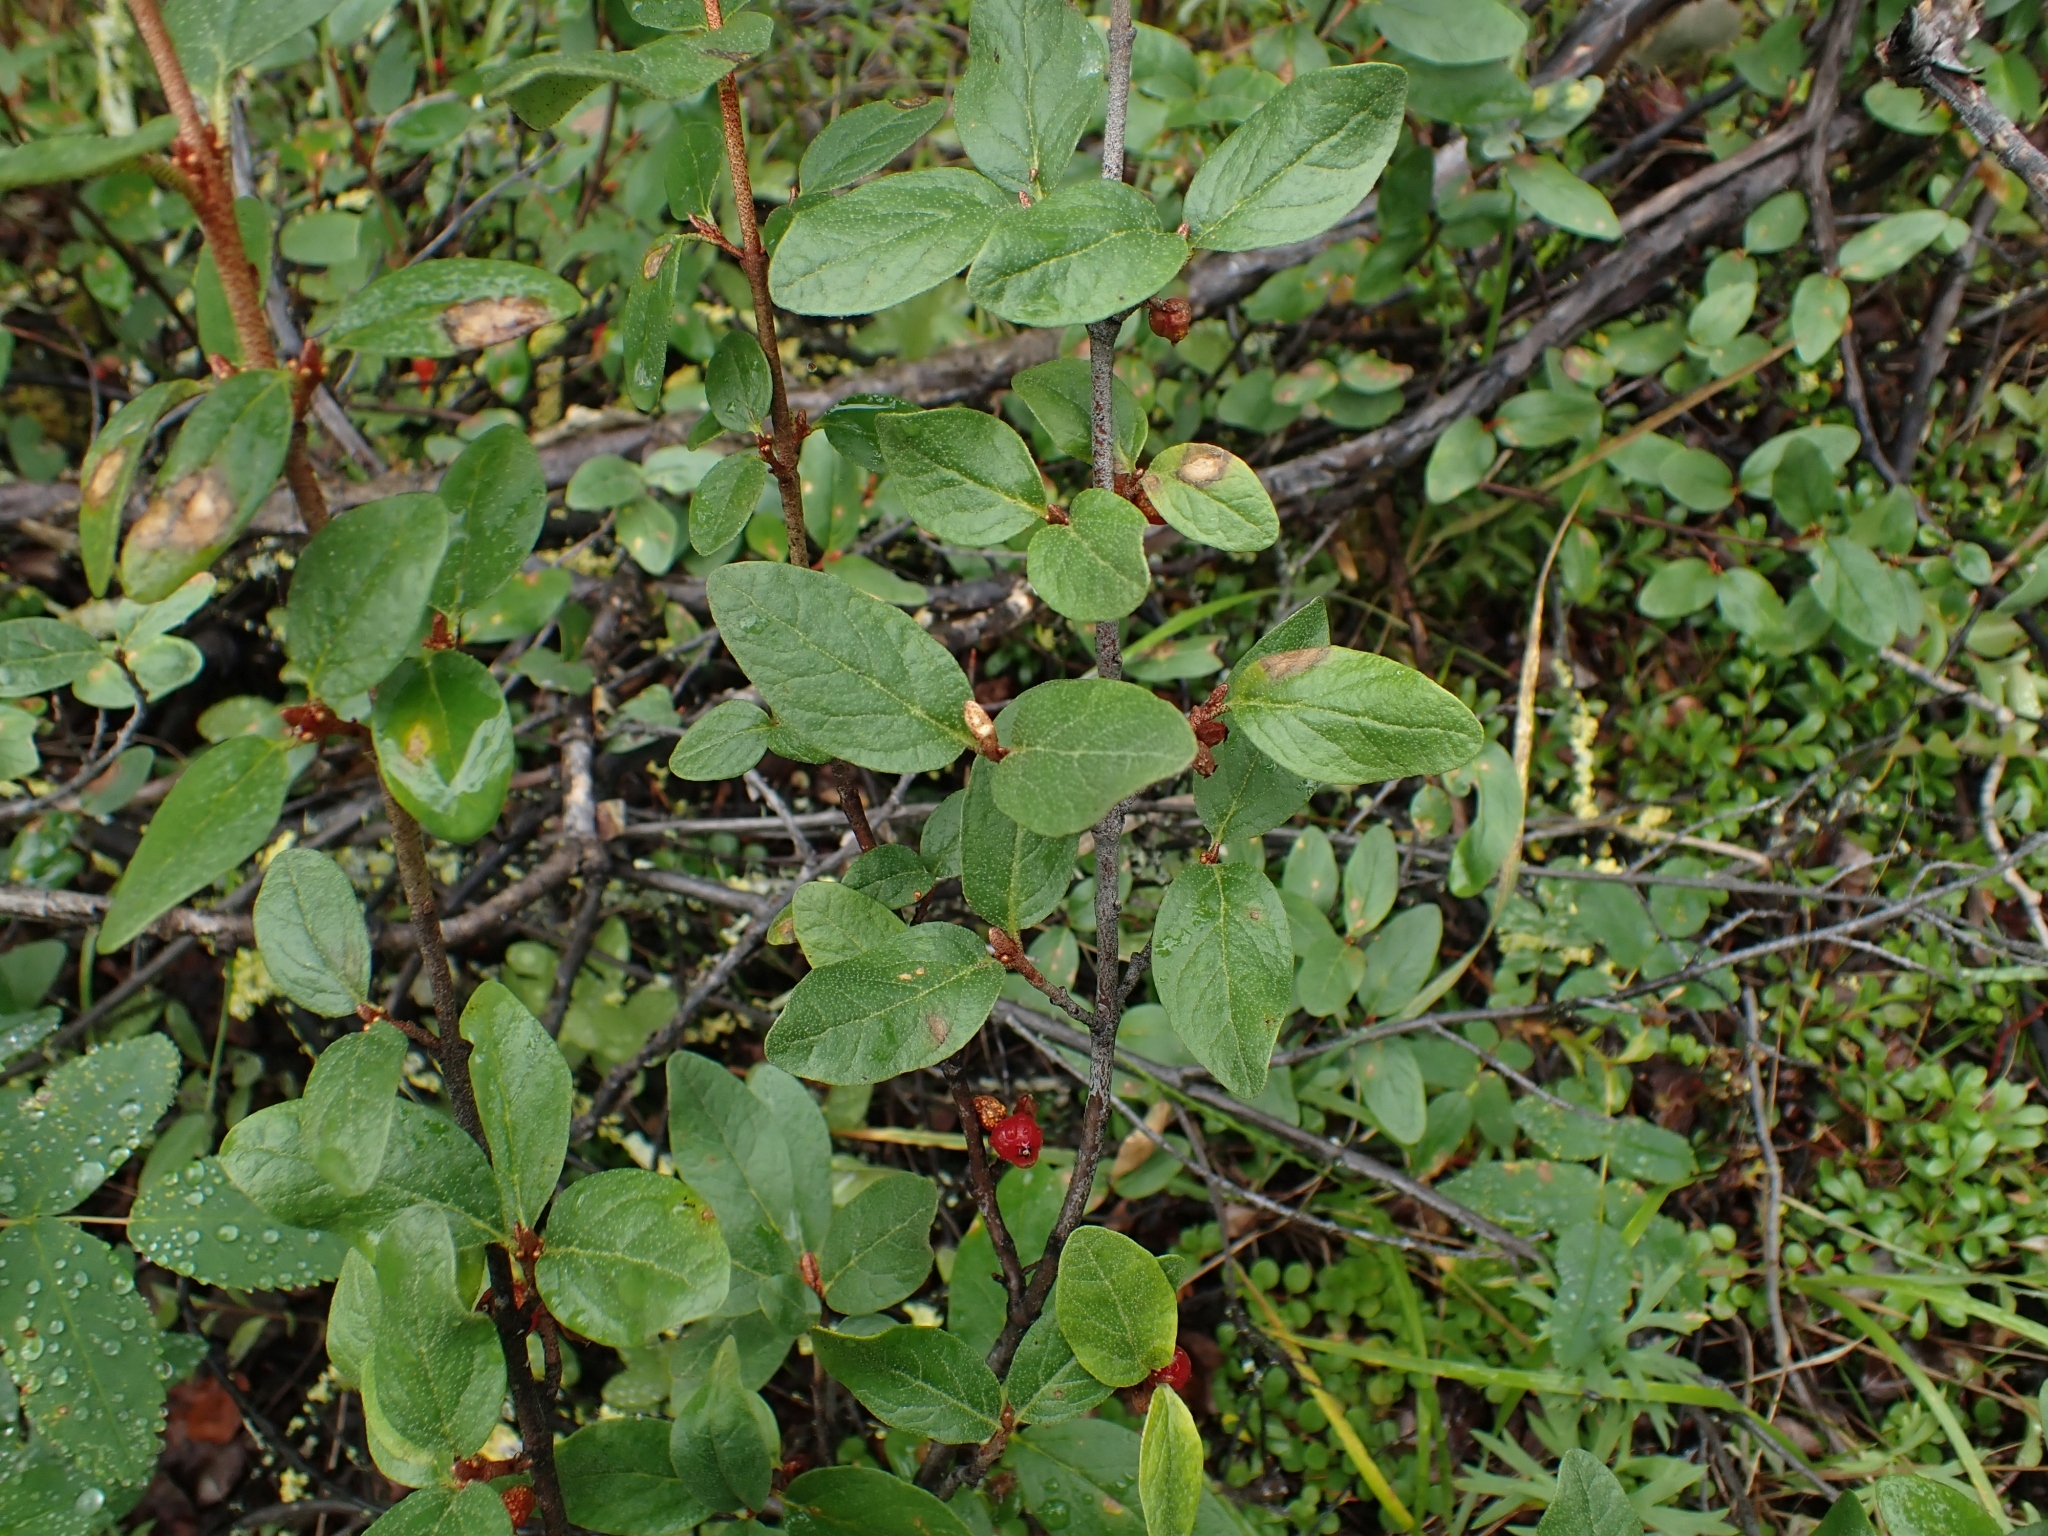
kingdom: Plantae
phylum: Tracheophyta
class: Magnoliopsida
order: Rosales
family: Elaeagnaceae
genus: Shepherdia
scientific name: Shepherdia canadensis
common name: Soapberry
